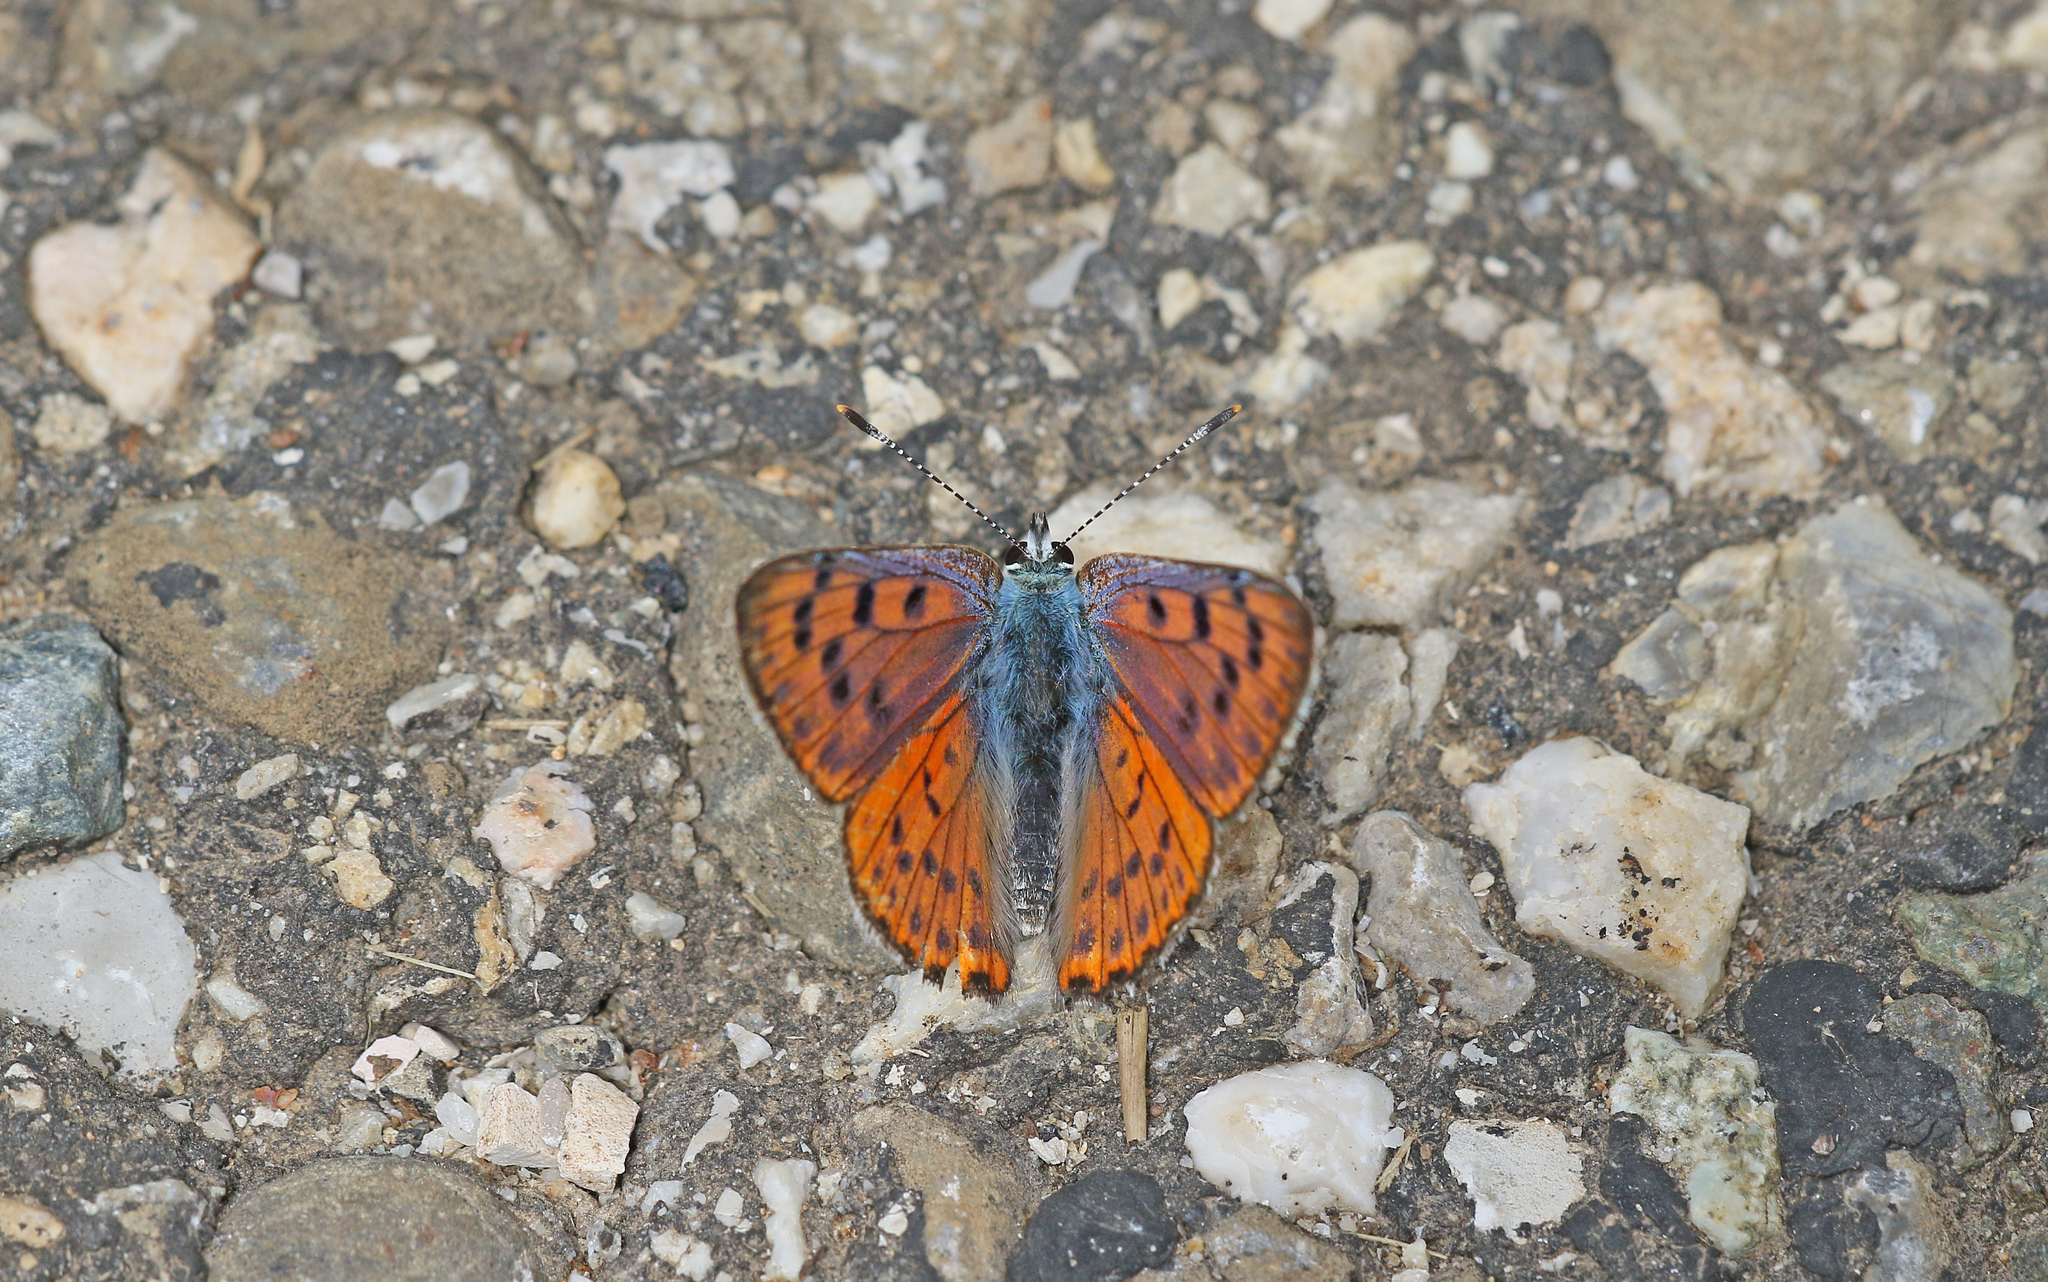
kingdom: Animalia
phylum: Arthropoda
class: Insecta
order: Lepidoptera
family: Lycaenidae
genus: Lycaena
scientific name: Lycaena alciphron
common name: Purple-shot copper
